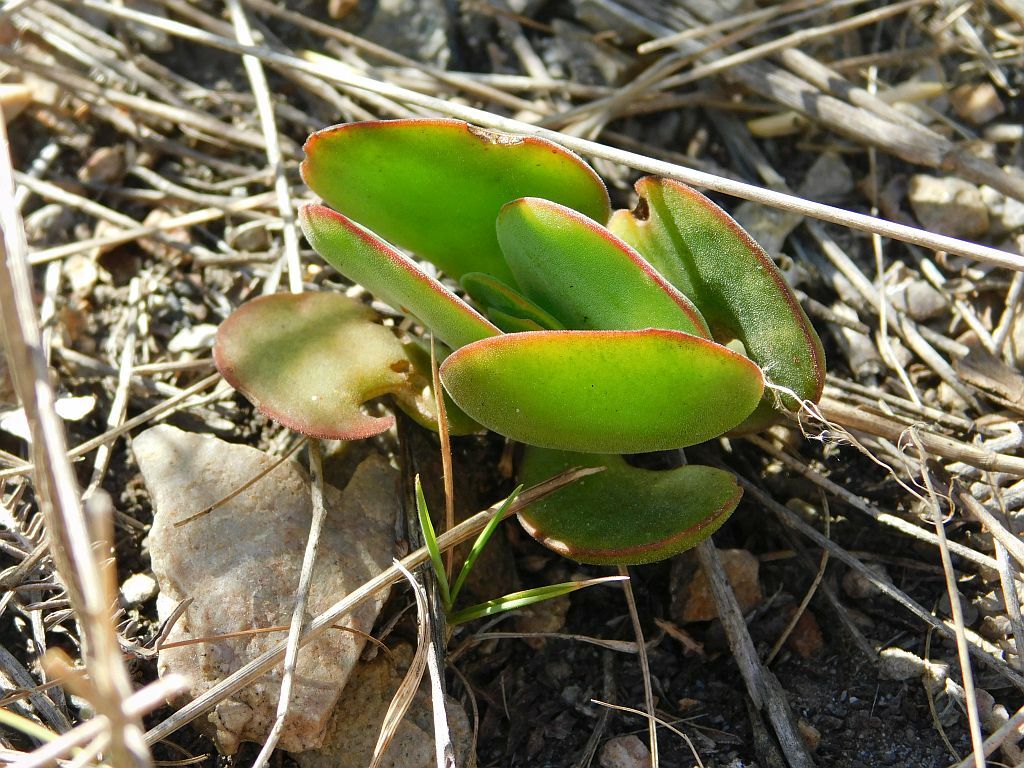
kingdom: Plantae
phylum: Tracheophyta
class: Magnoliopsida
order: Saxifragales
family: Crassulaceae
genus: Crassula
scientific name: Crassula atropurpurea
